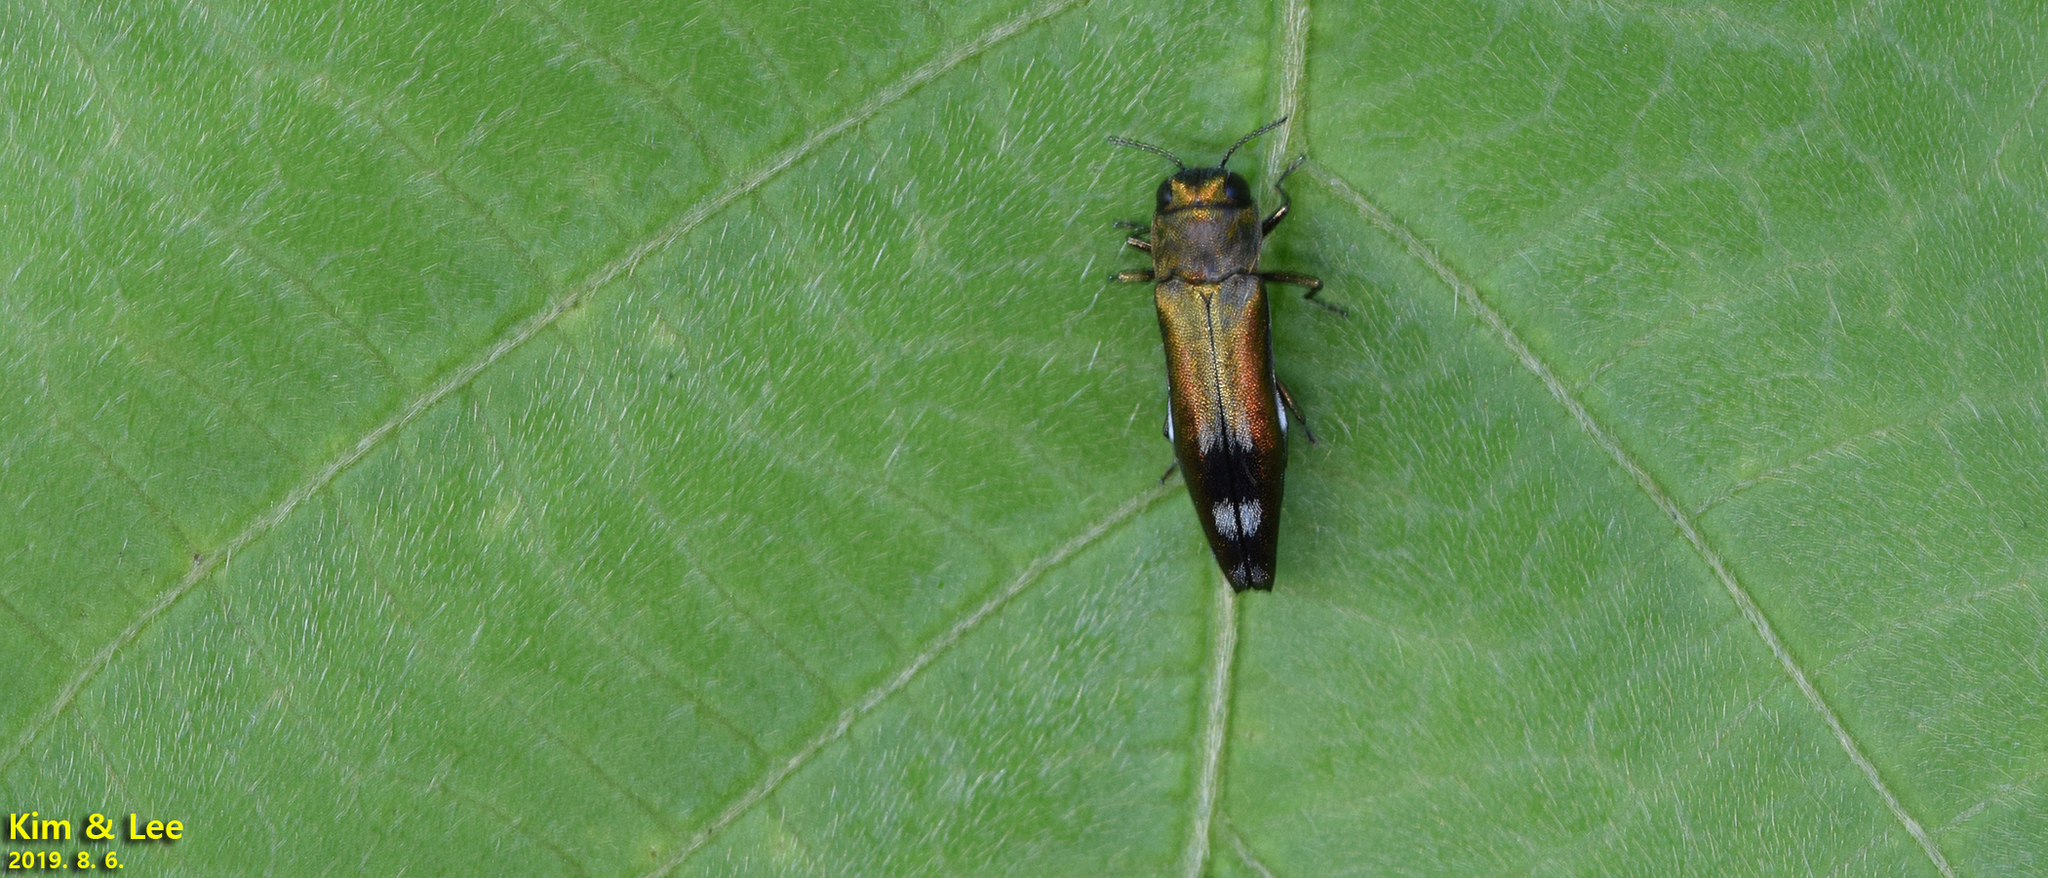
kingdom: Animalia
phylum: Arthropoda
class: Insecta
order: Coleoptera
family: Buprestidae
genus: Agrilus
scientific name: Agrilus chujoi
